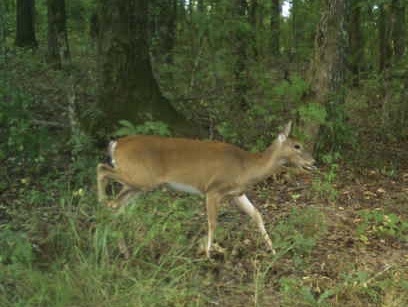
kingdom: Animalia
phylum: Chordata
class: Mammalia
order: Artiodactyla
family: Cervidae
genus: Odocoileus
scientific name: Odocoileus virginianus
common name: White-tailed deer
